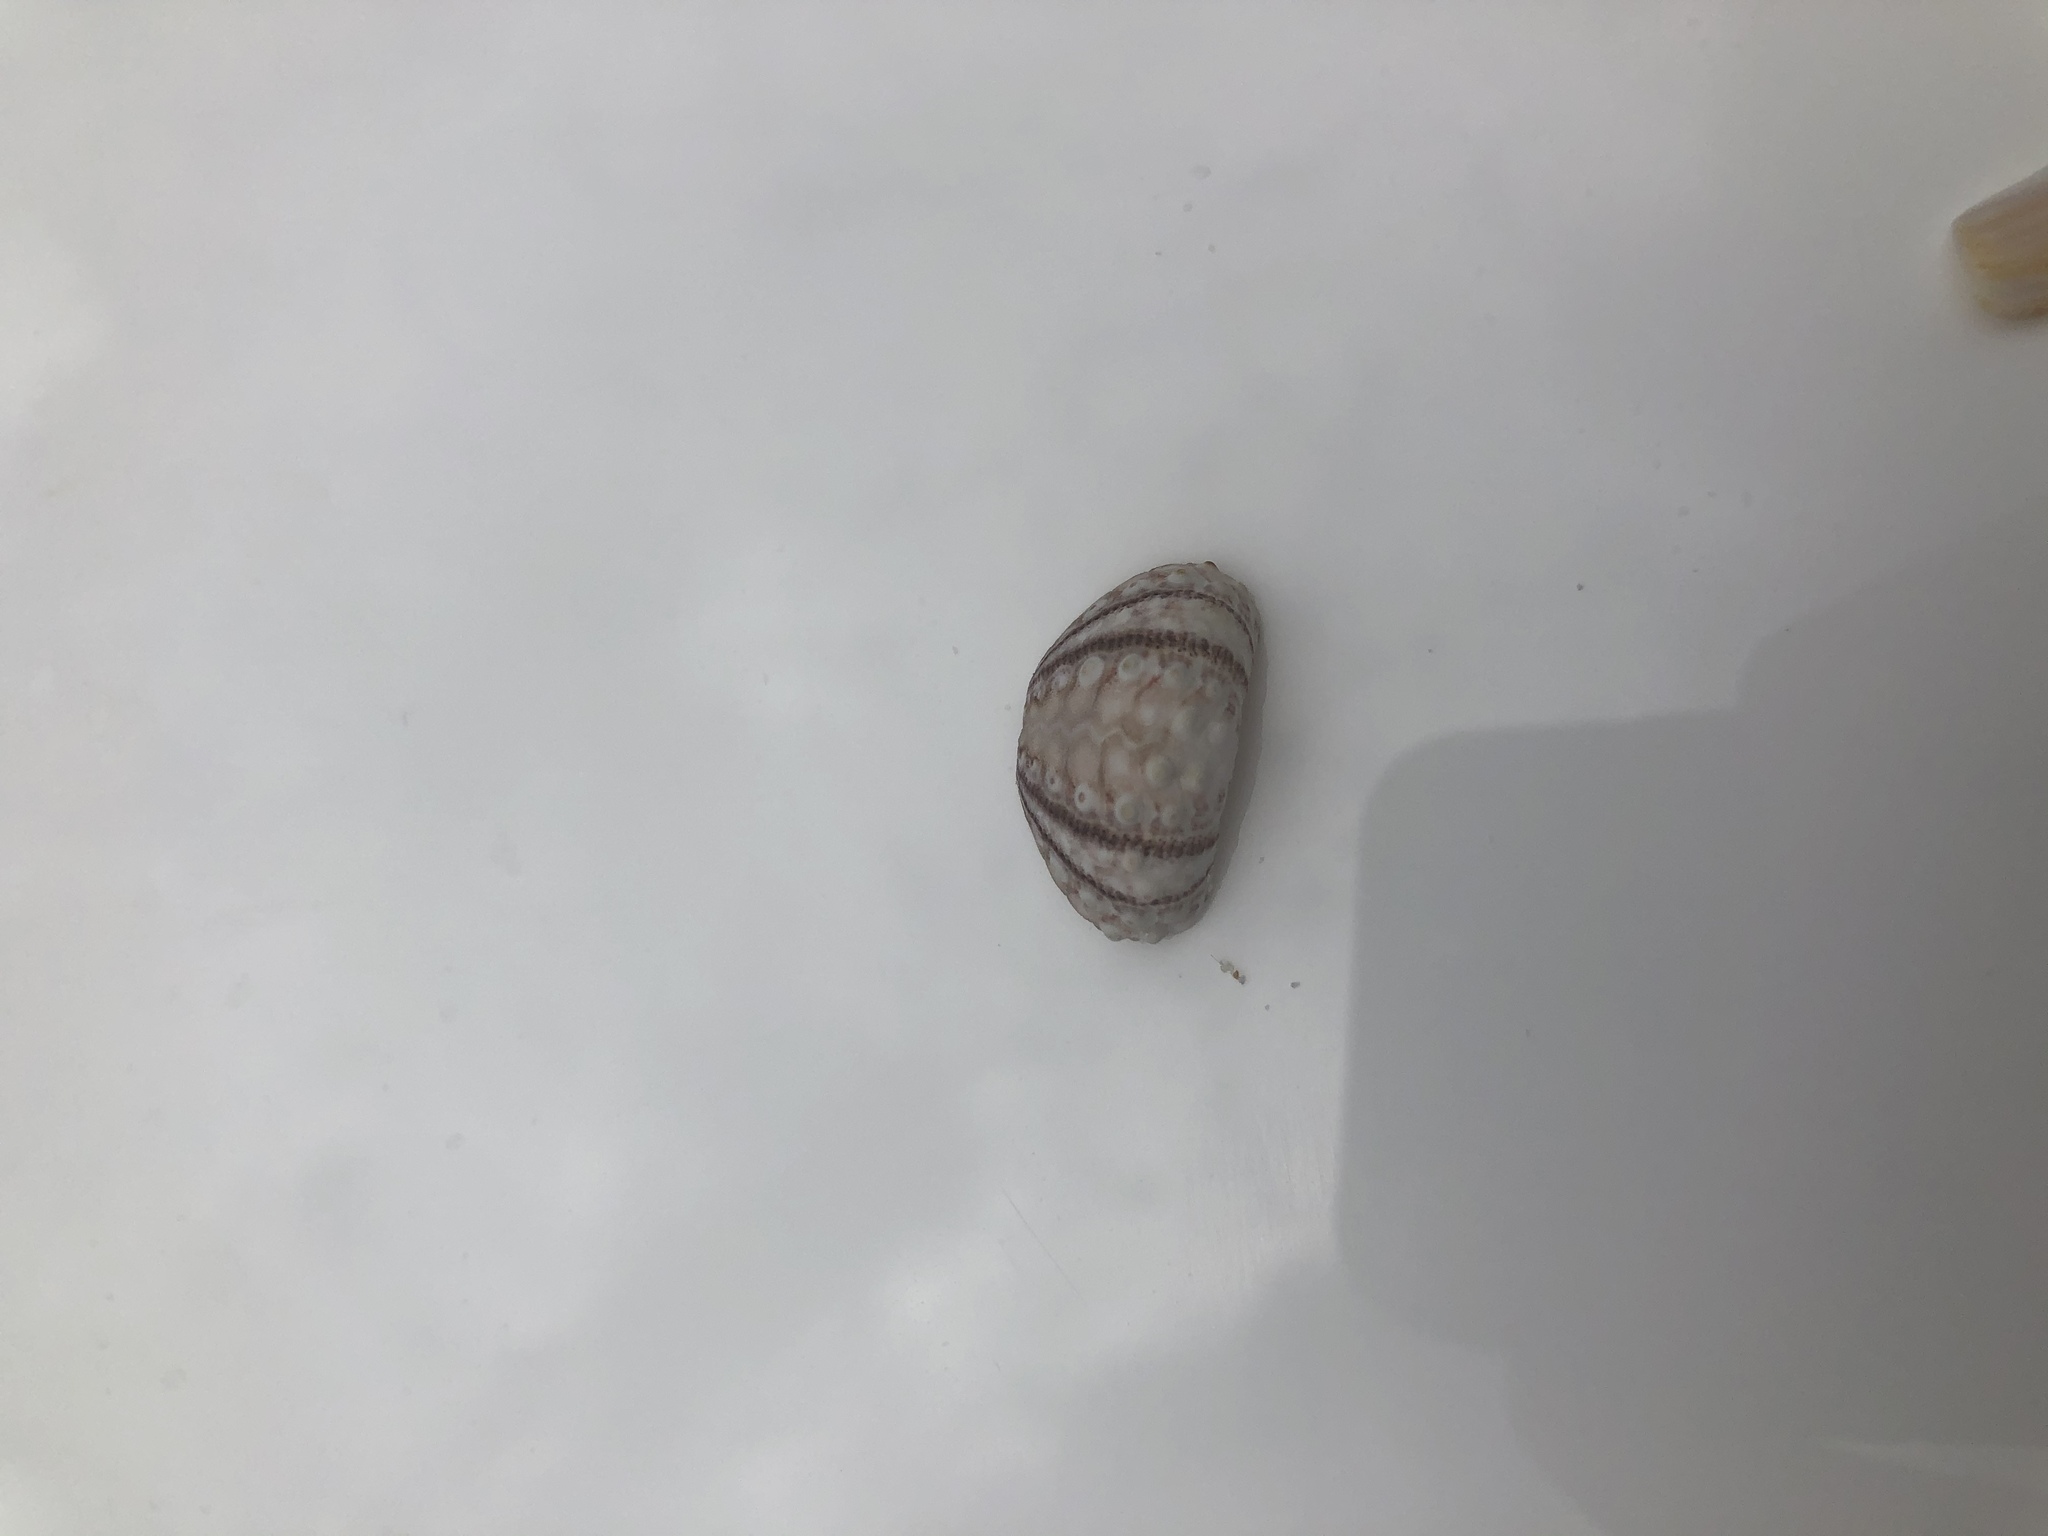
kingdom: Animalia
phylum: Echinodermata
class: Echinoidea
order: Arbacioida
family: Arbaciidae
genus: Arbacia
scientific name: Arbacia punctulata
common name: Purple-spined sea urchin
